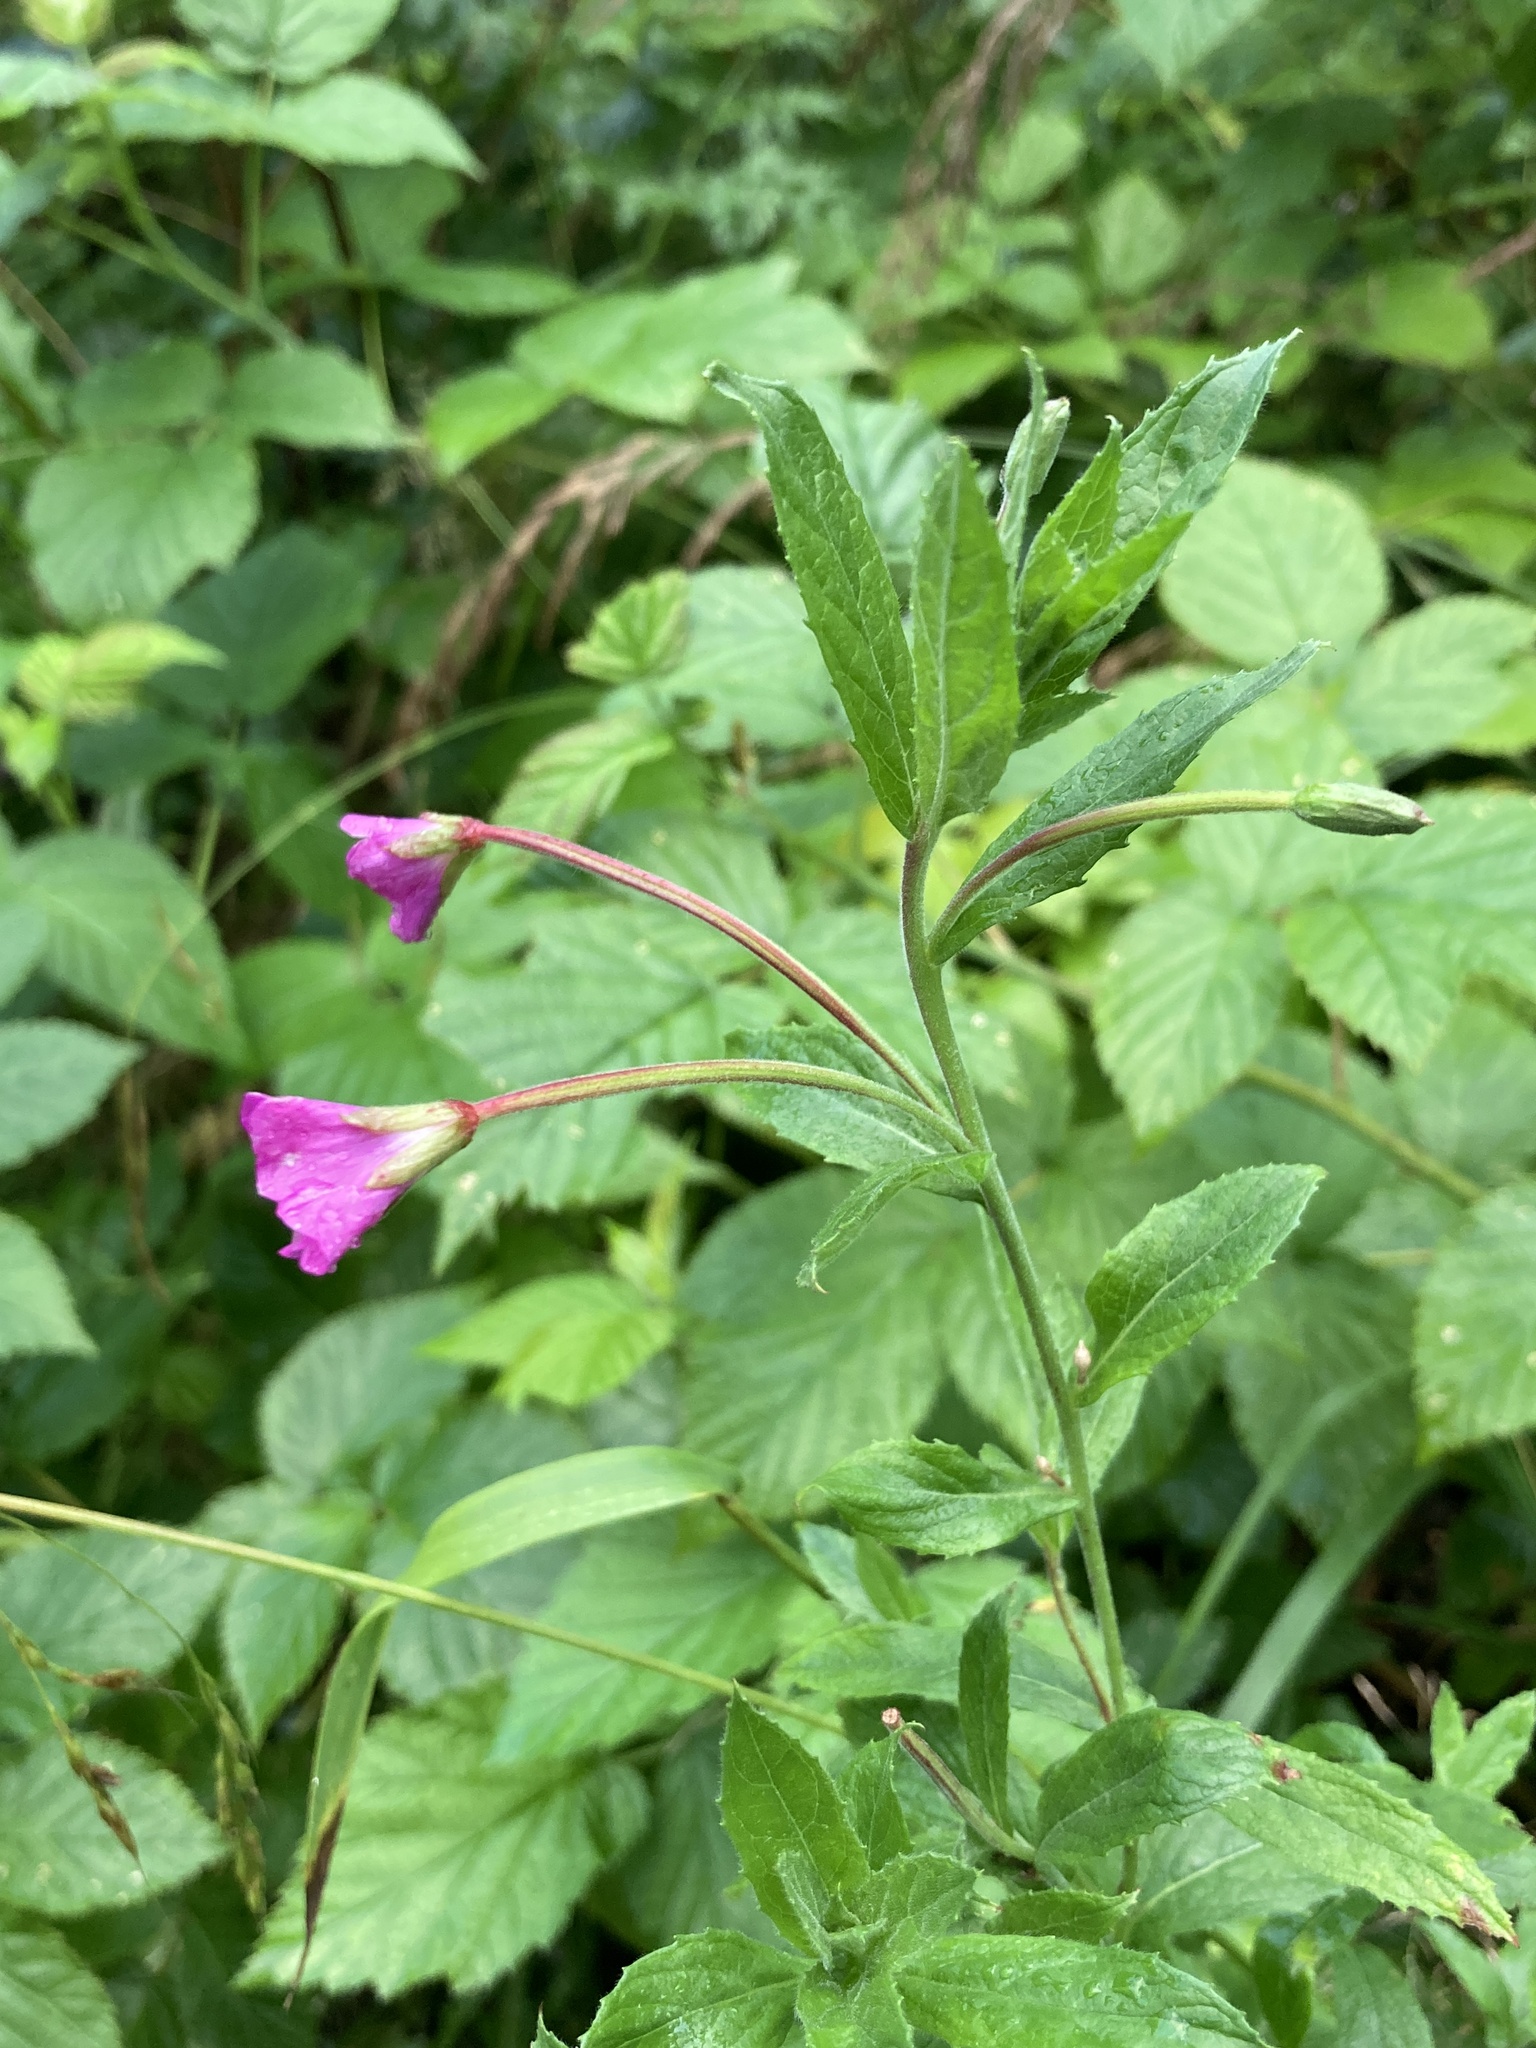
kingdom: Plantae
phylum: Tracheophyta
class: Magnoliopsida
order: Myrtales
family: Onagraceae
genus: Epilobium
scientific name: Epilobium hirsutum
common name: Great willowherb
